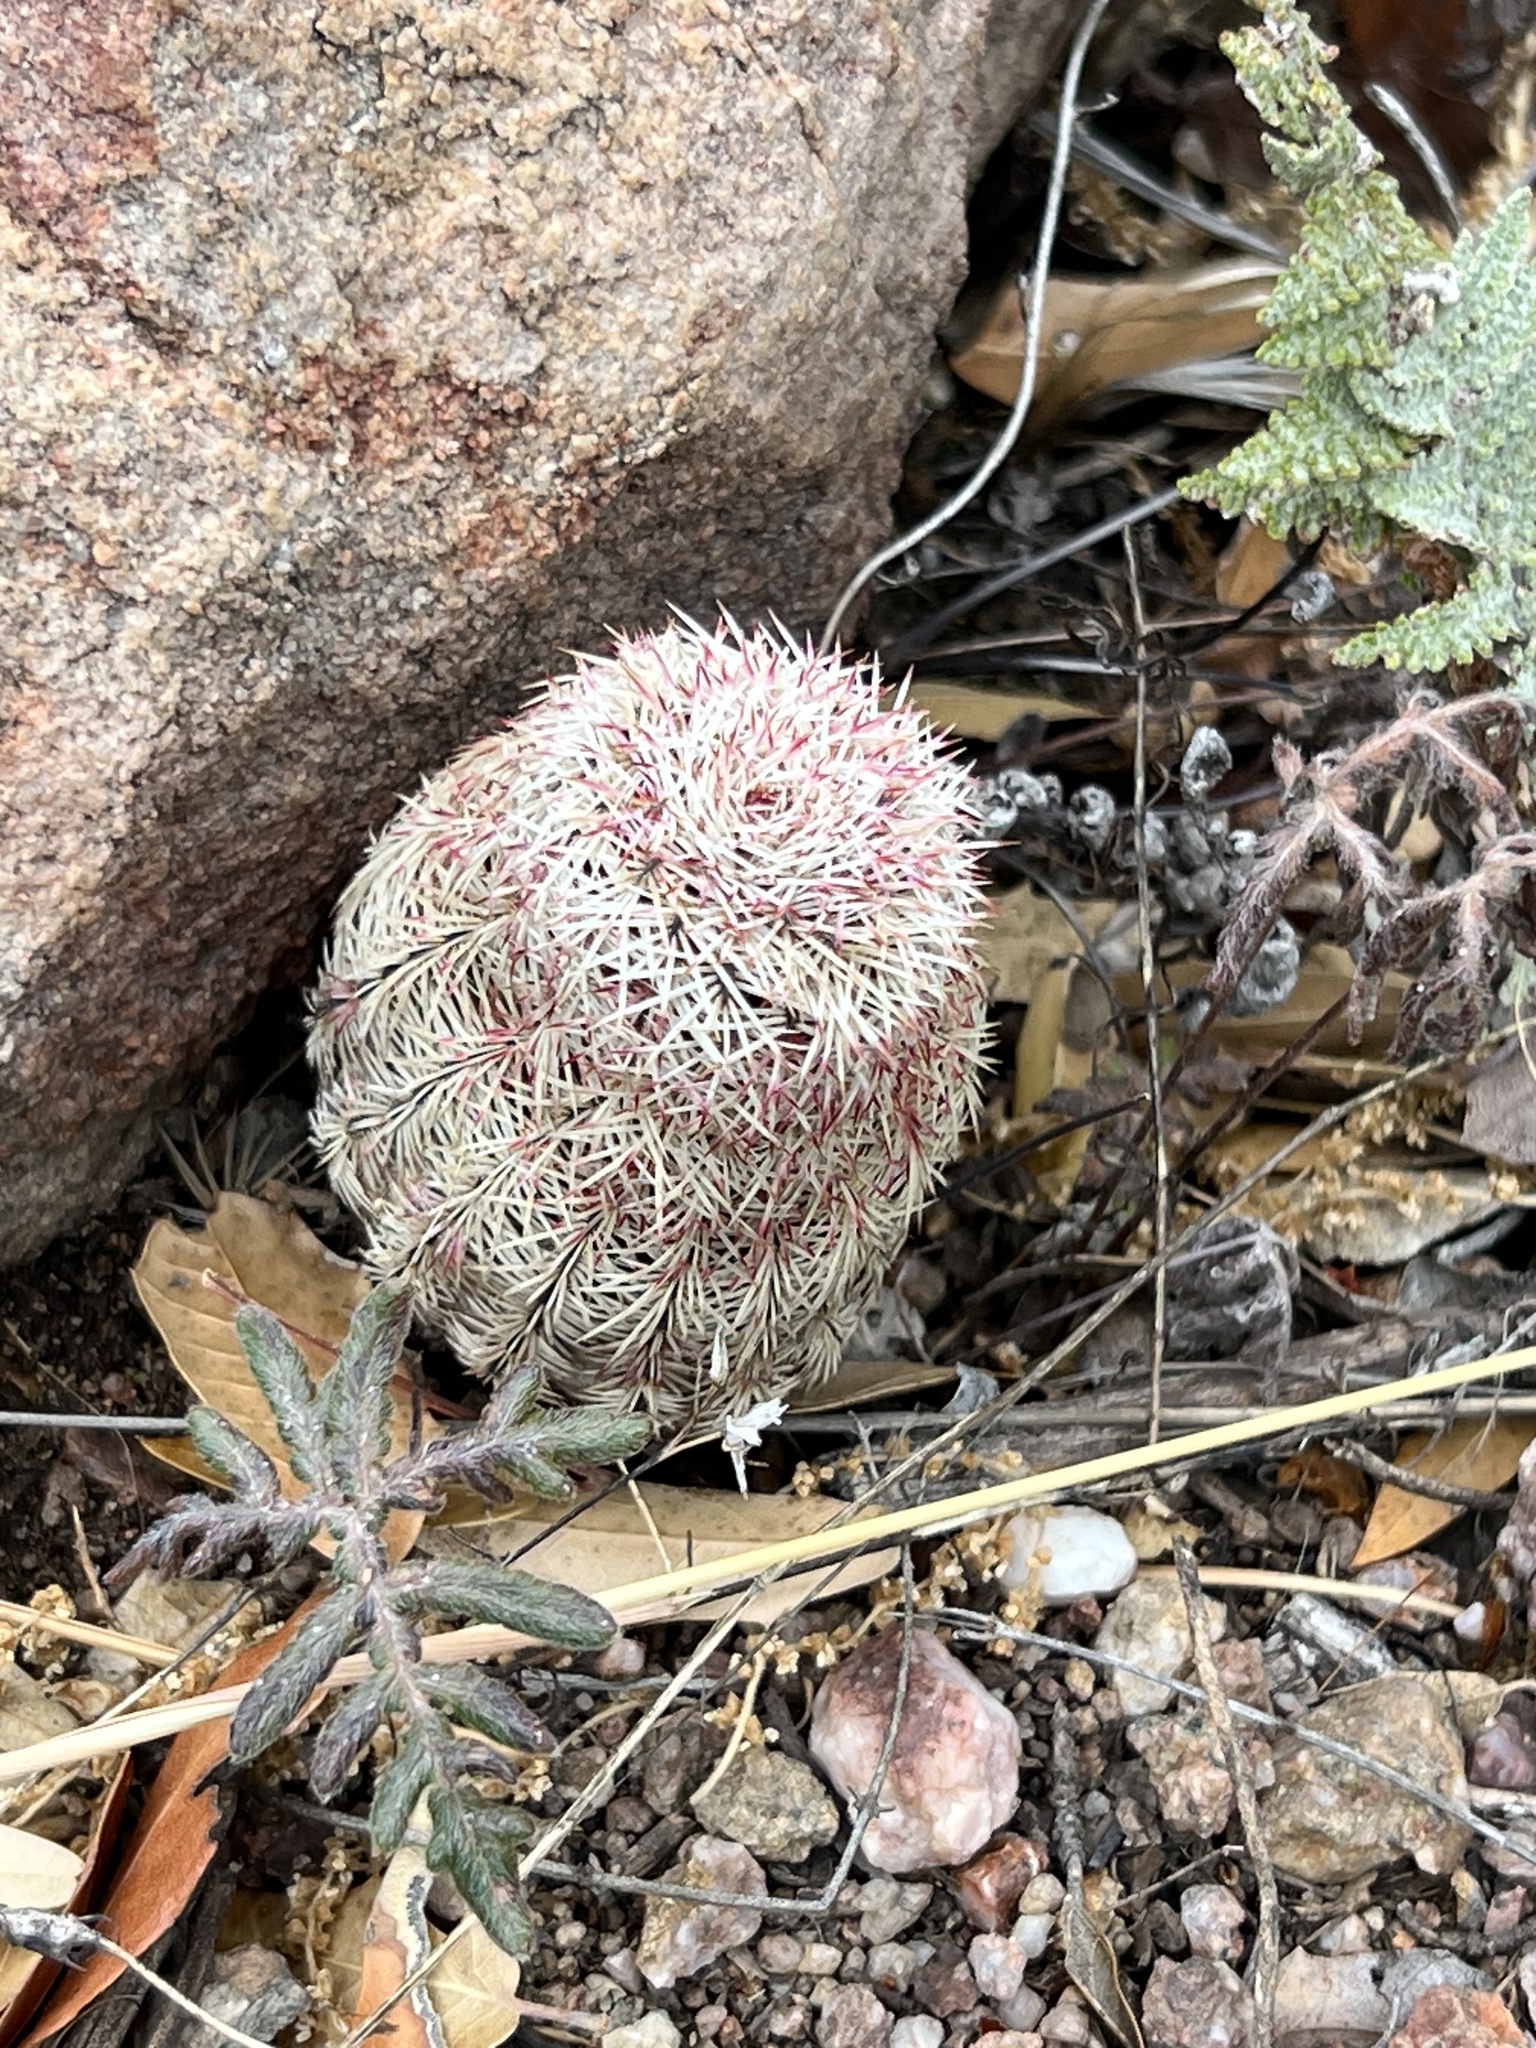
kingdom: Plantae
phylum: Tracheophyta
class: Magnoliopsida
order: Caryophyllales
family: Cactaceae
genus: Echinocereus
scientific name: Echinocereus rigidissimus
